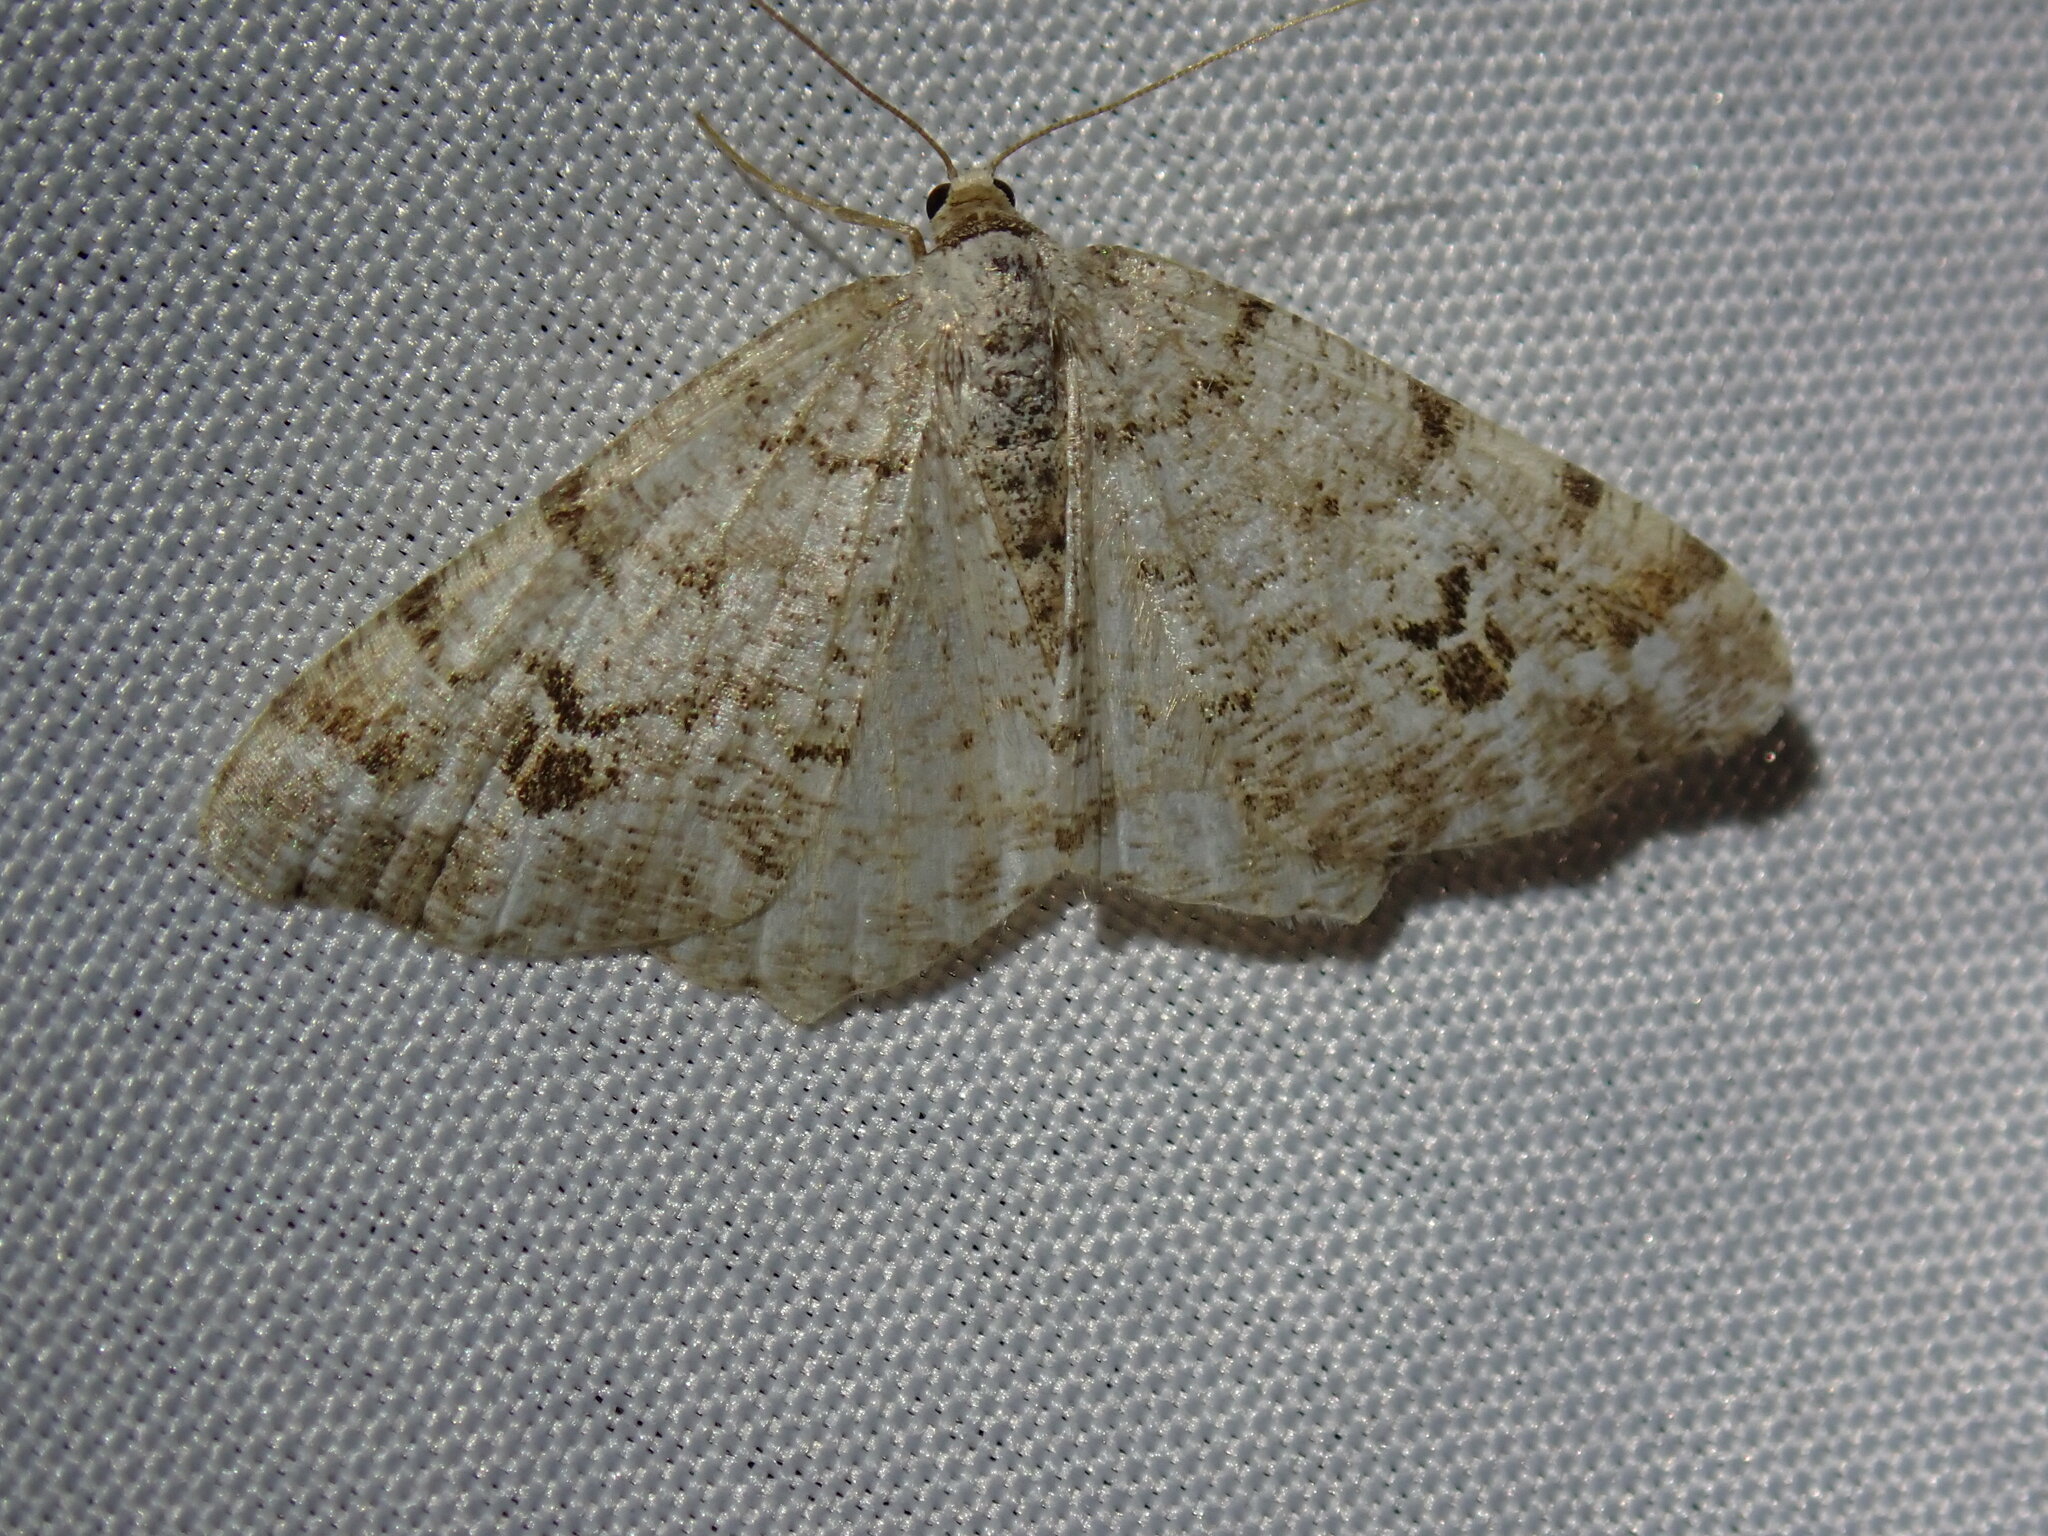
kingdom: Animalia
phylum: Arthropoda
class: Insecta
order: Lepidoptera
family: Geometridae
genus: Macaria
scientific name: Macaria signaria
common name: Dusky peacock
